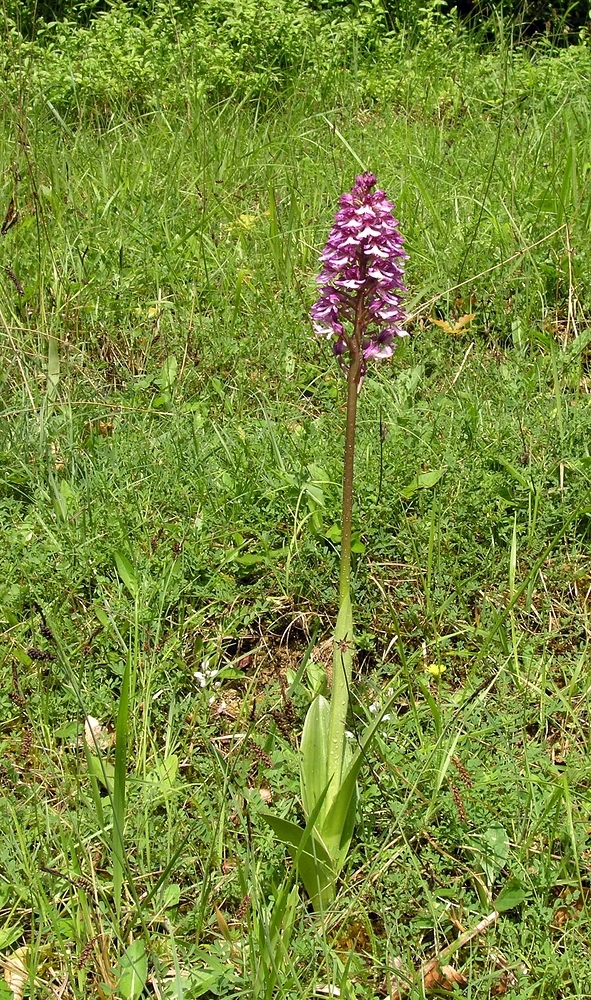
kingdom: Plantae
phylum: Tracheophyta
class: Liliopsida
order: Asparagales
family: Orchidaceae
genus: Orchis
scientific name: Orchis purpurea
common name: Lady orchid
